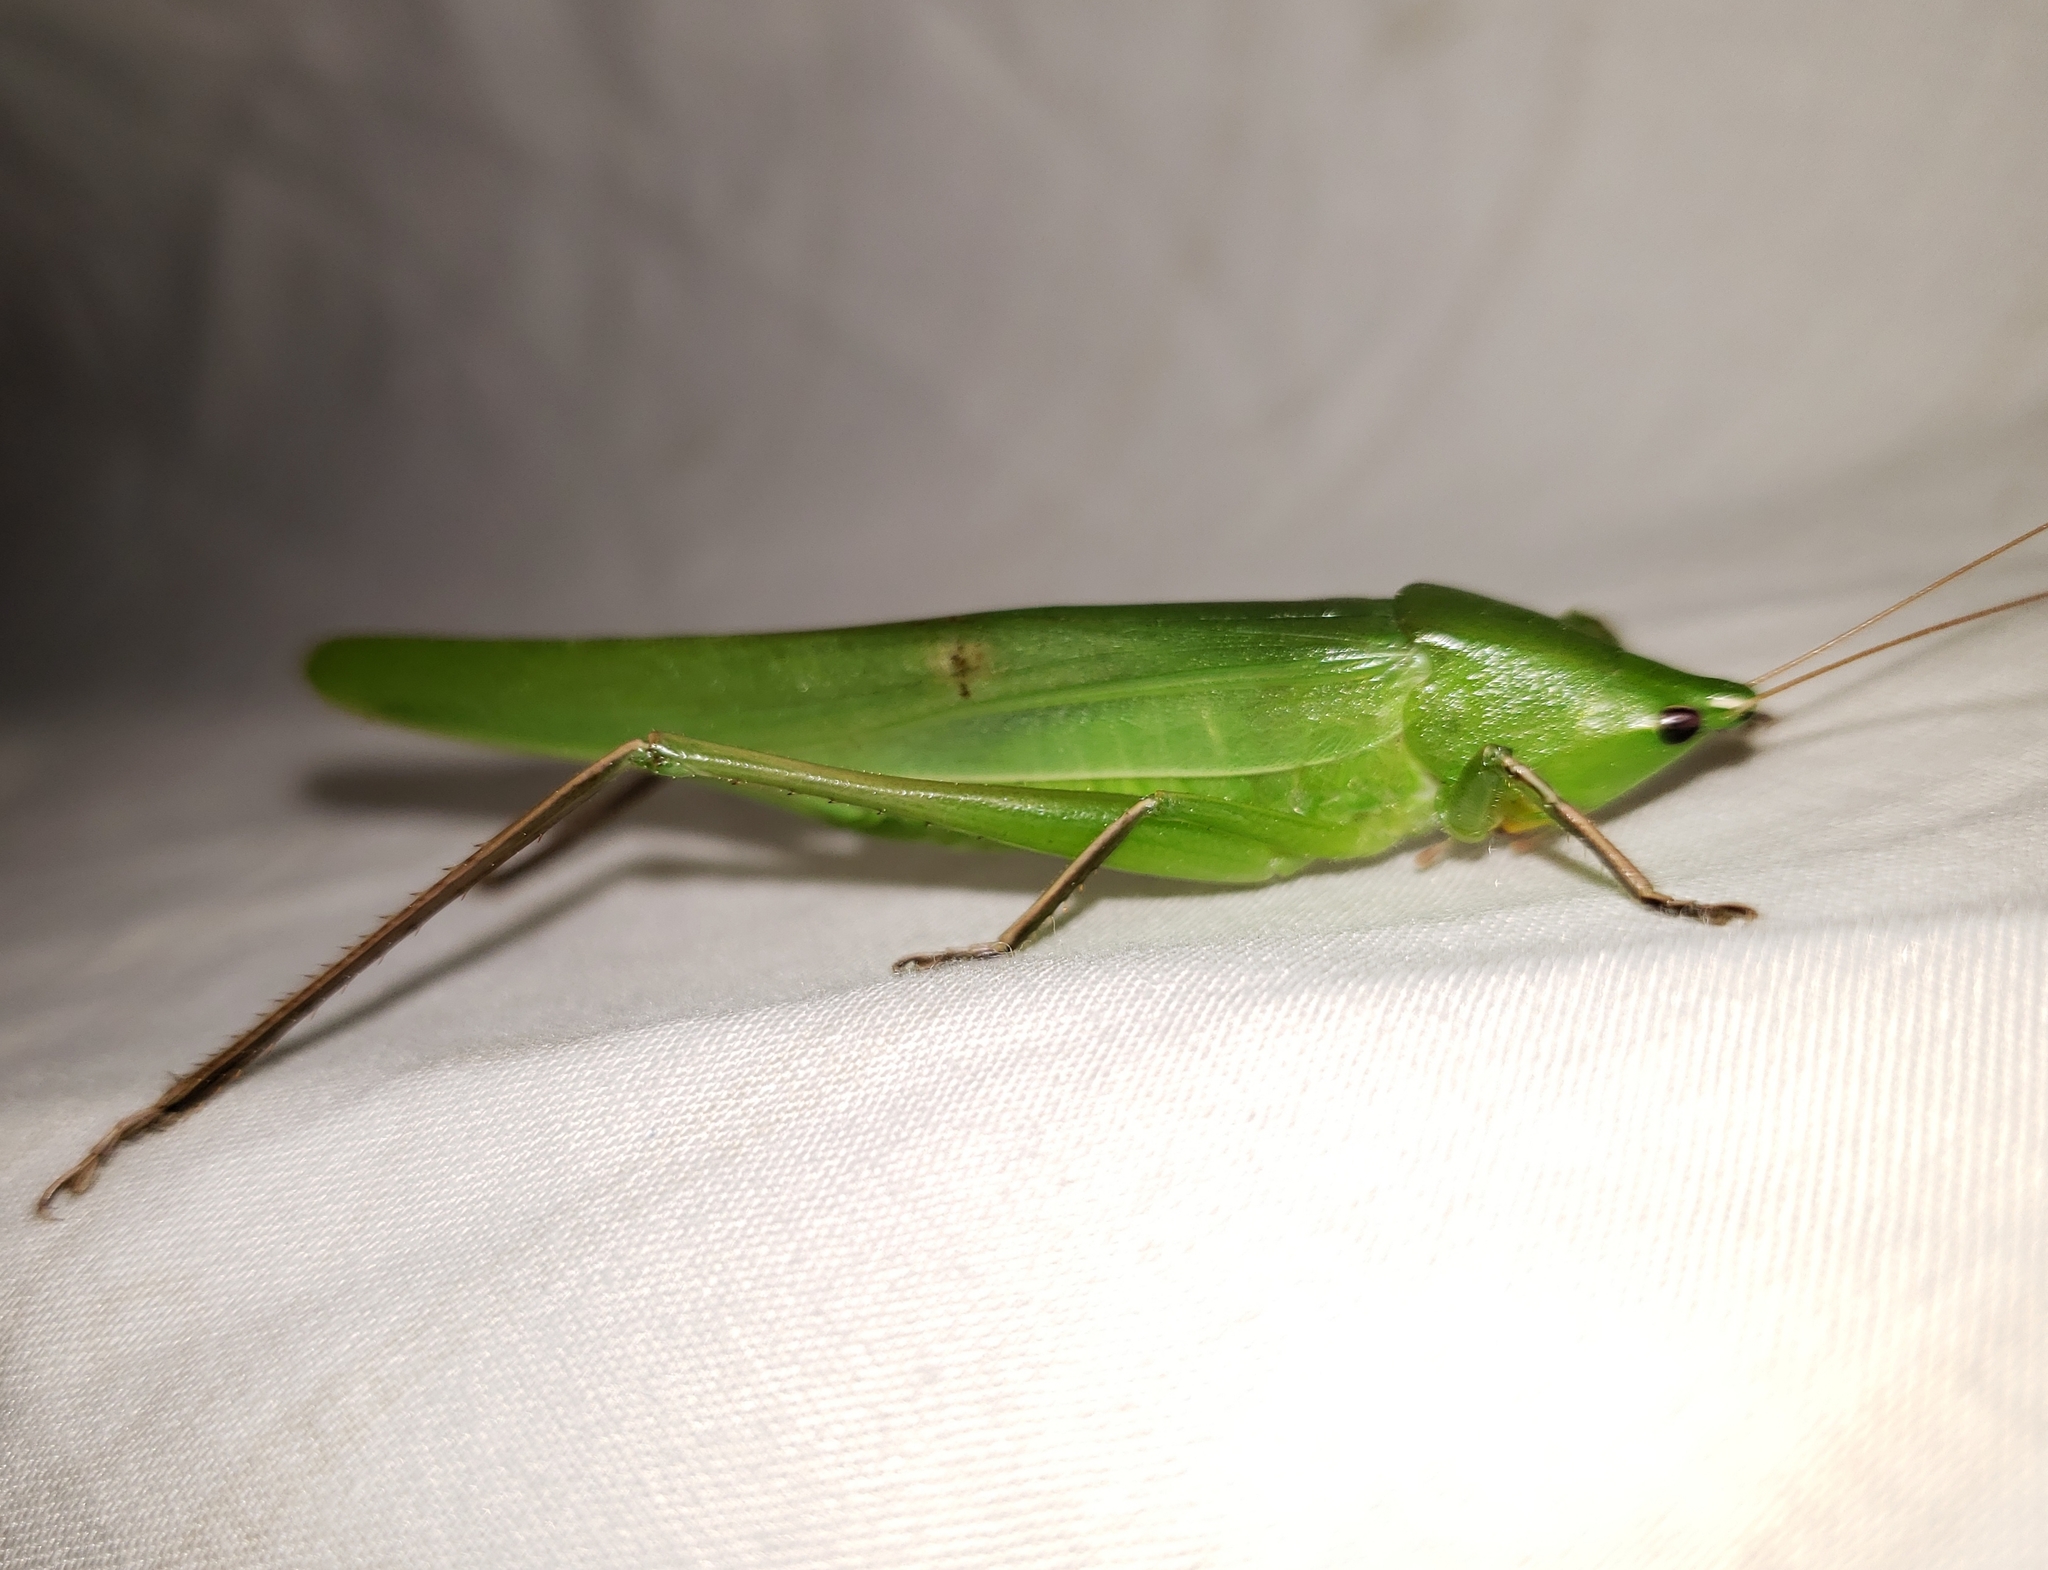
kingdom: Animalia
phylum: Arthropoda
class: Insecta
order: Orthoptera
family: Tettigoniidae
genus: Neoconocephalus
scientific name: Neoconocephalus triops
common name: Broad-tipped conehead
